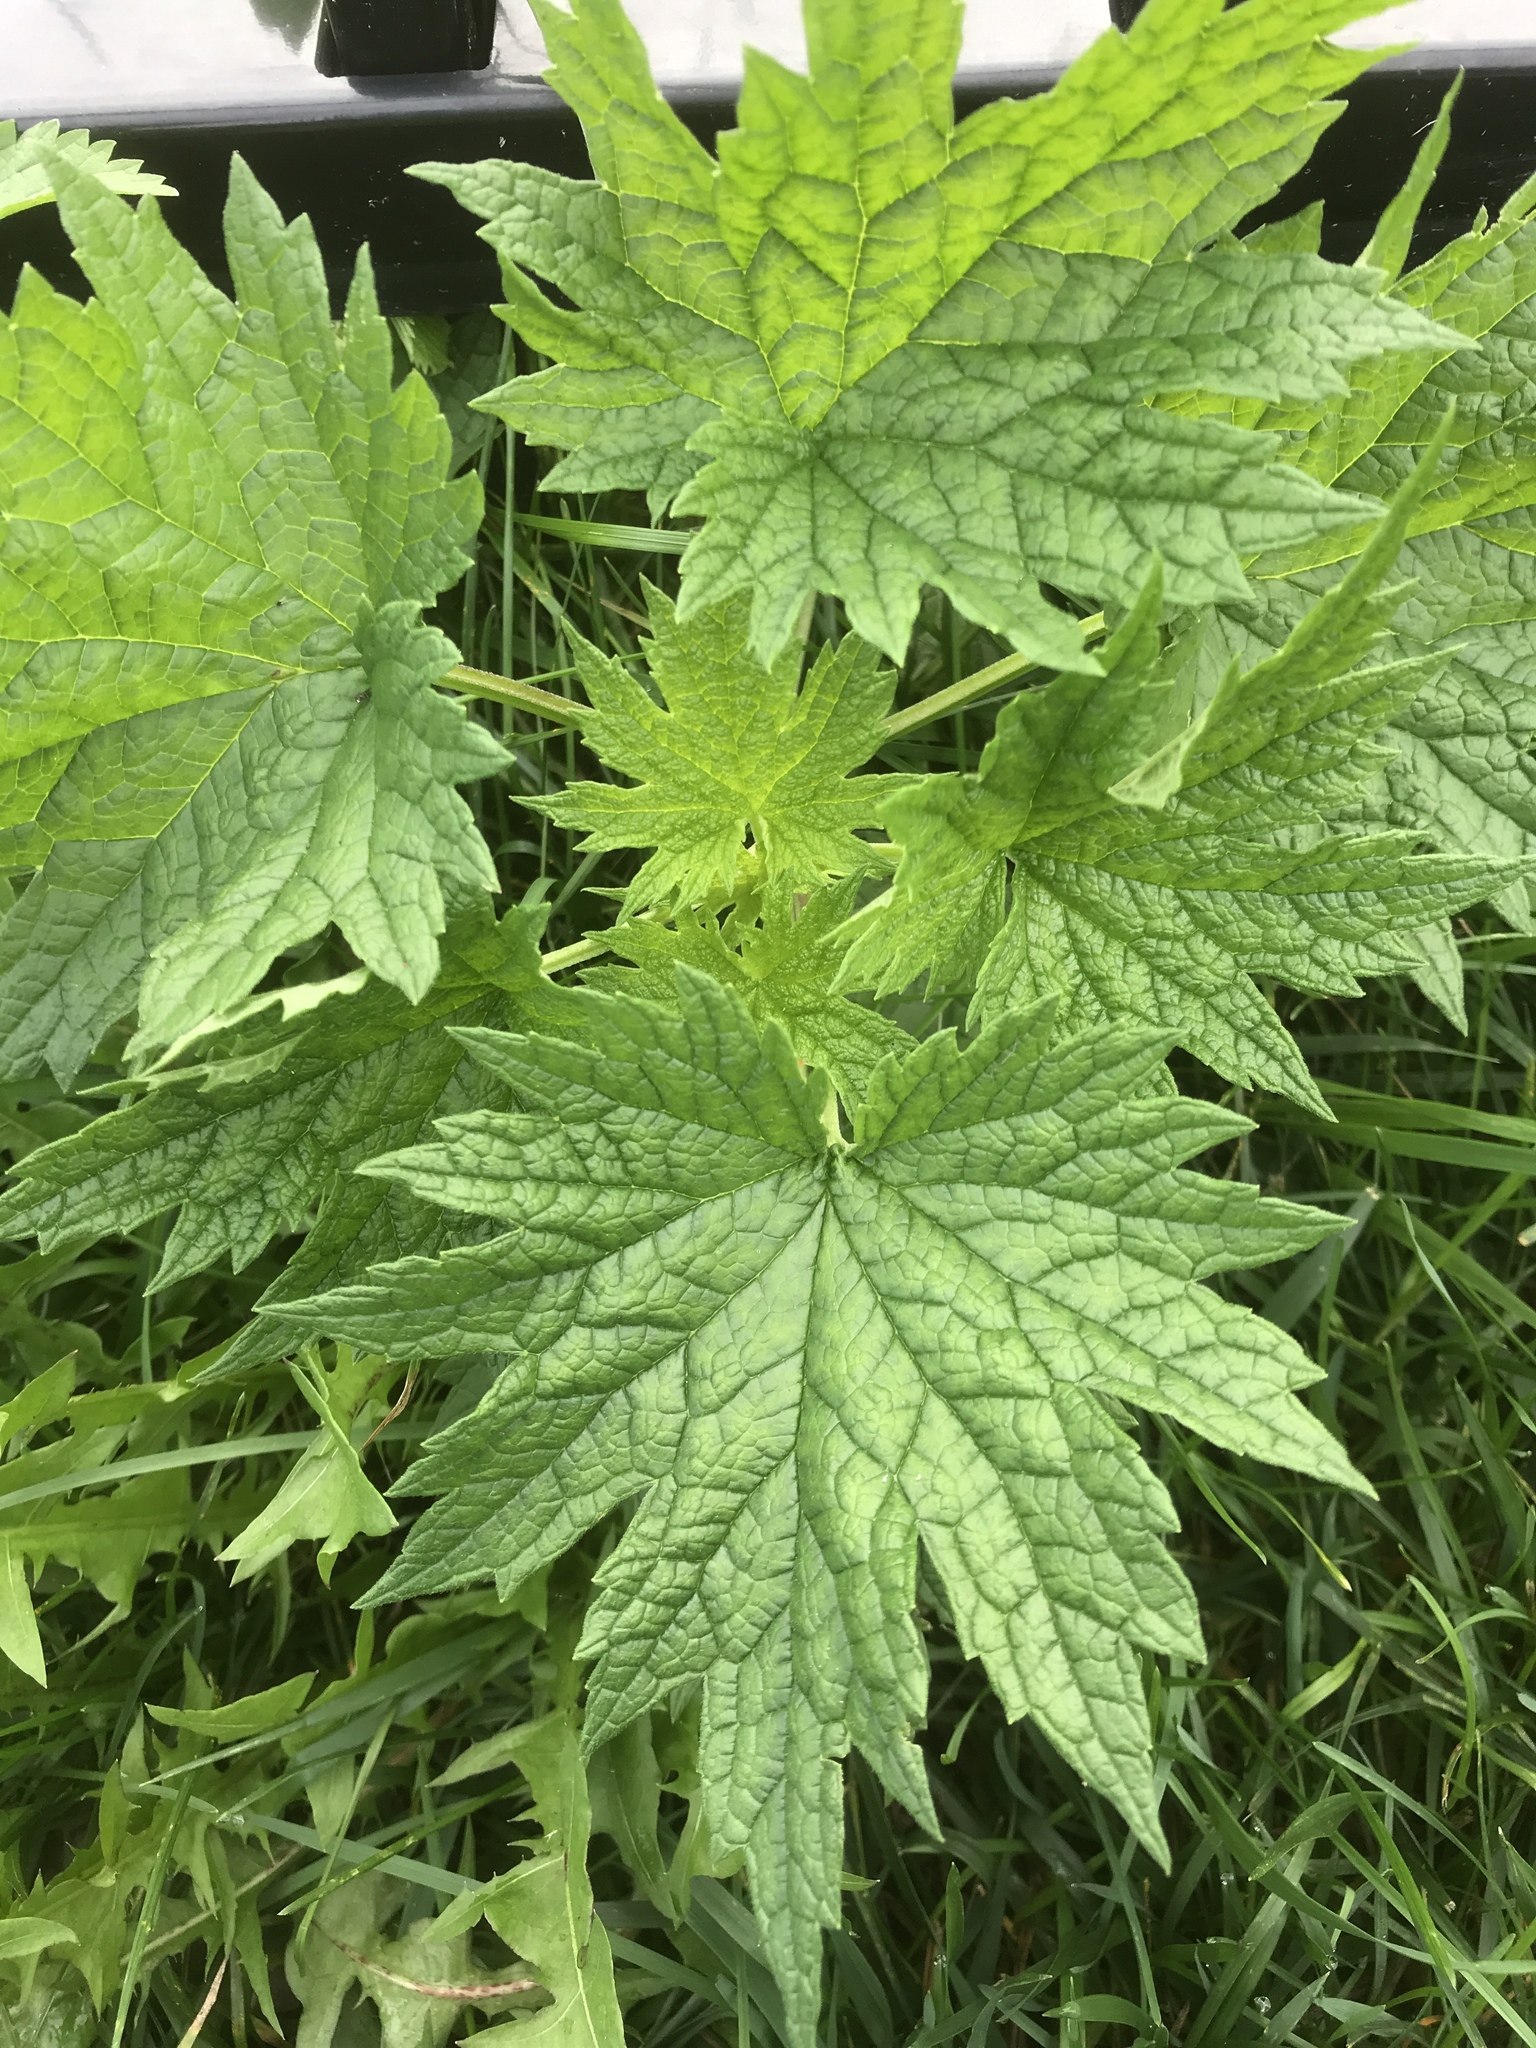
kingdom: Plantae
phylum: Tracheophyta
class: Magnoliopsida
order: Lamiales
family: Lamiaceae
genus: Leonurus
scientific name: Leonurus cardiaca
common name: Motherwort
